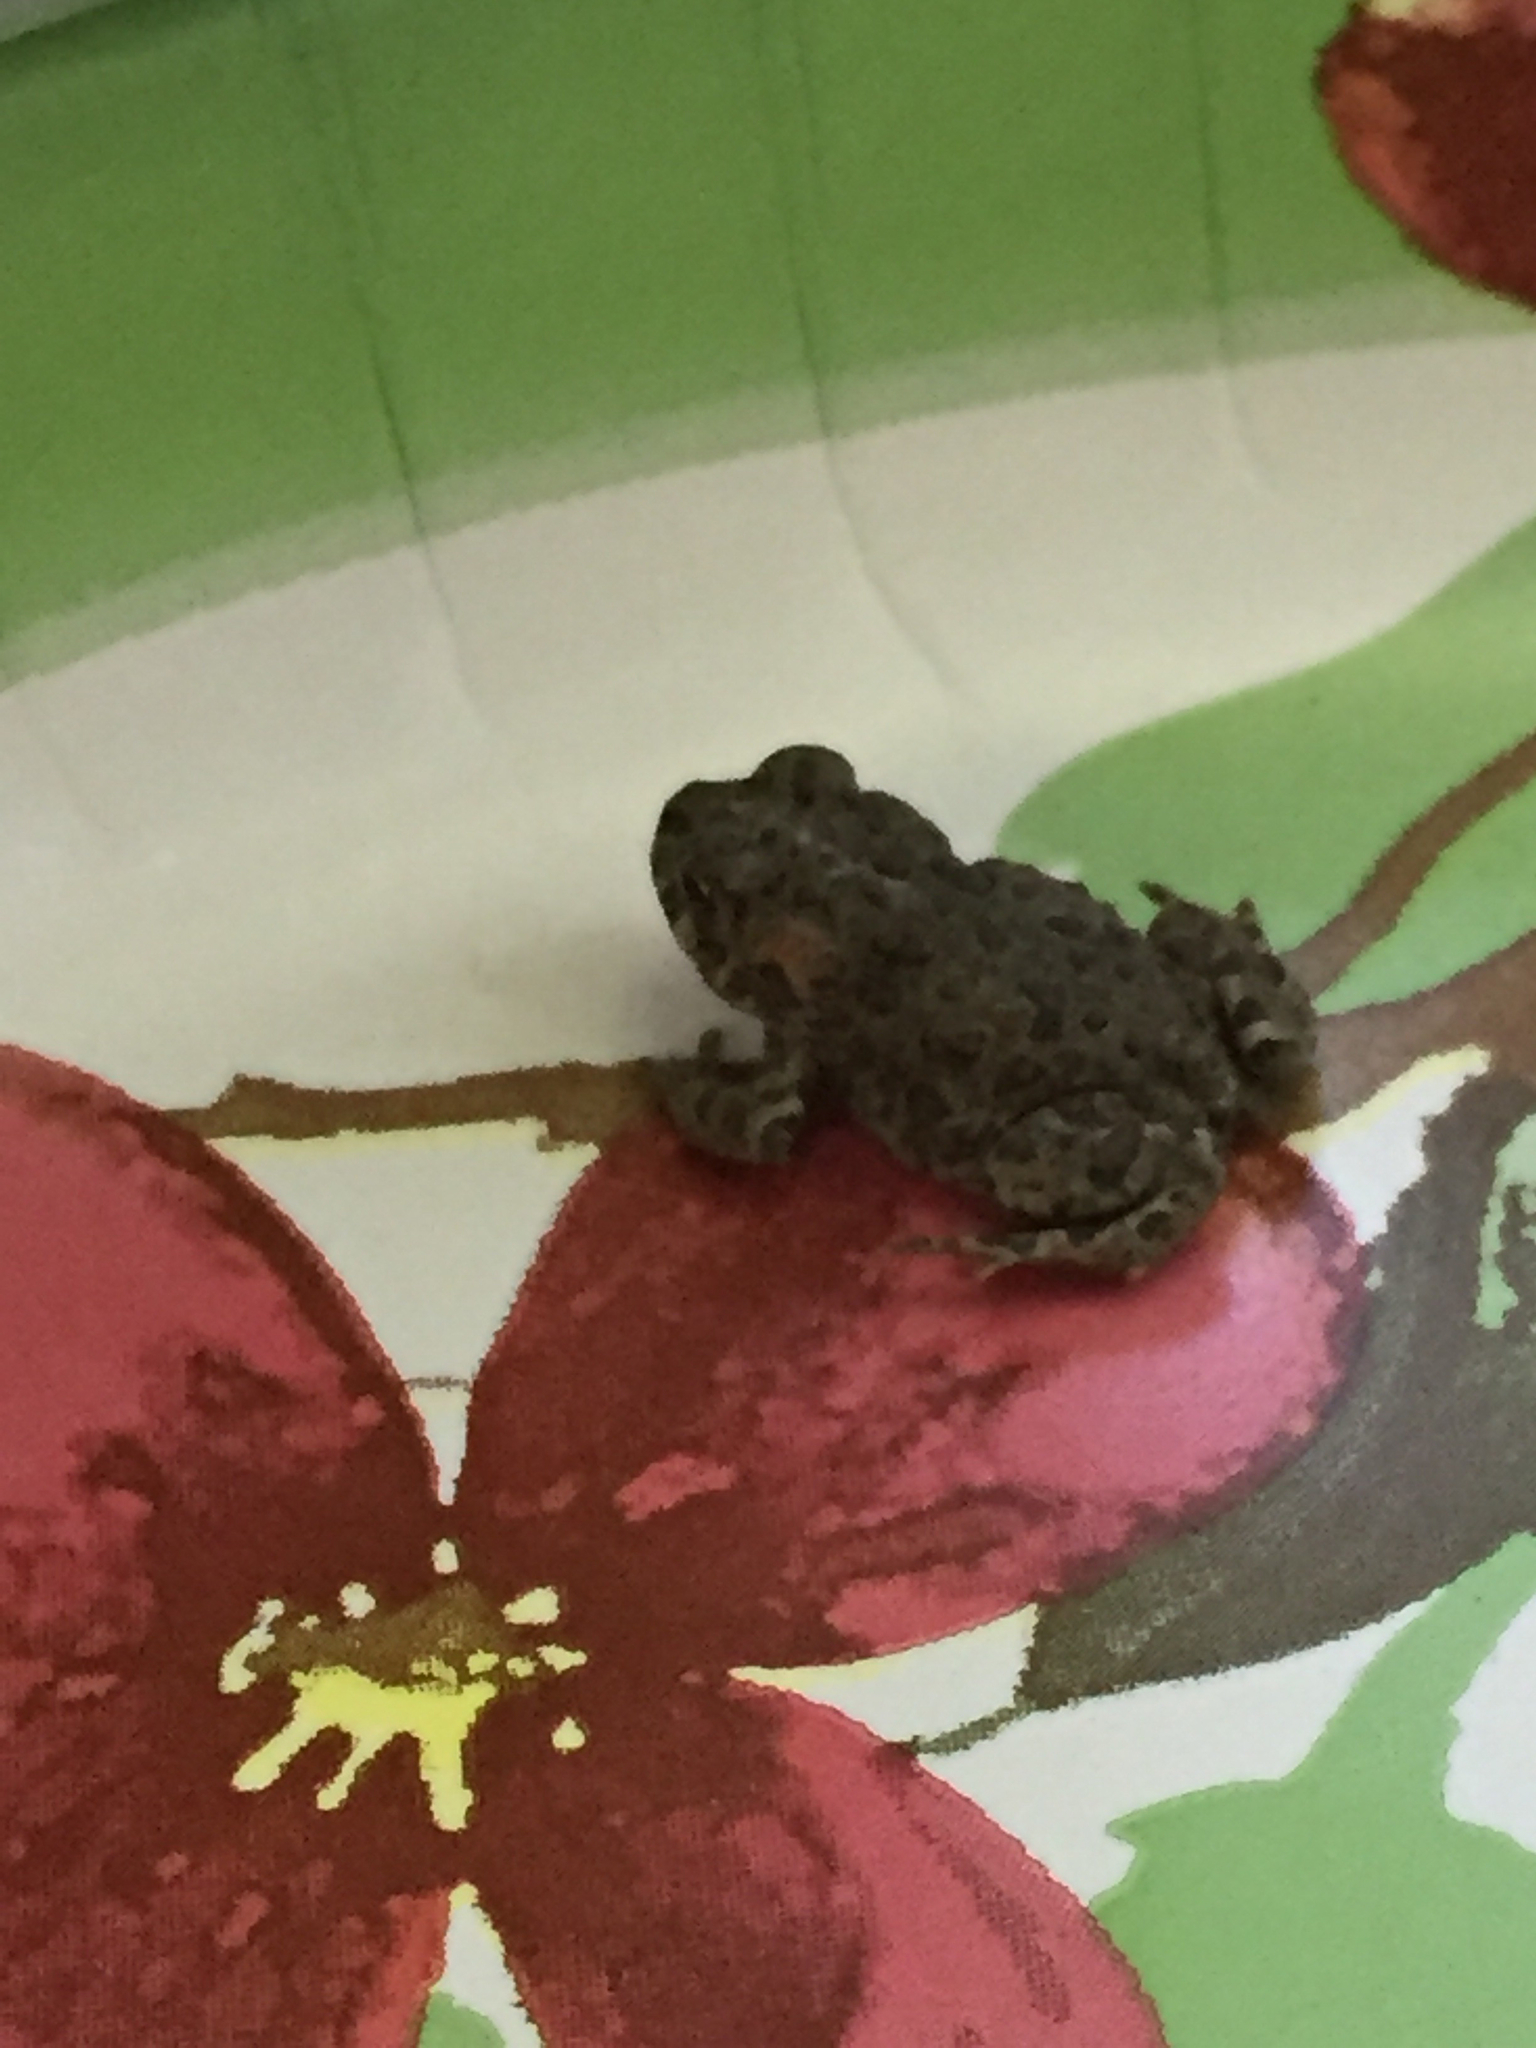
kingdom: Animalia
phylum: Chordata
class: Amphibia
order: Anura
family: Bufonidae
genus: Anaxyrus
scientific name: Anaxyrus boreas
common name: Western toad
